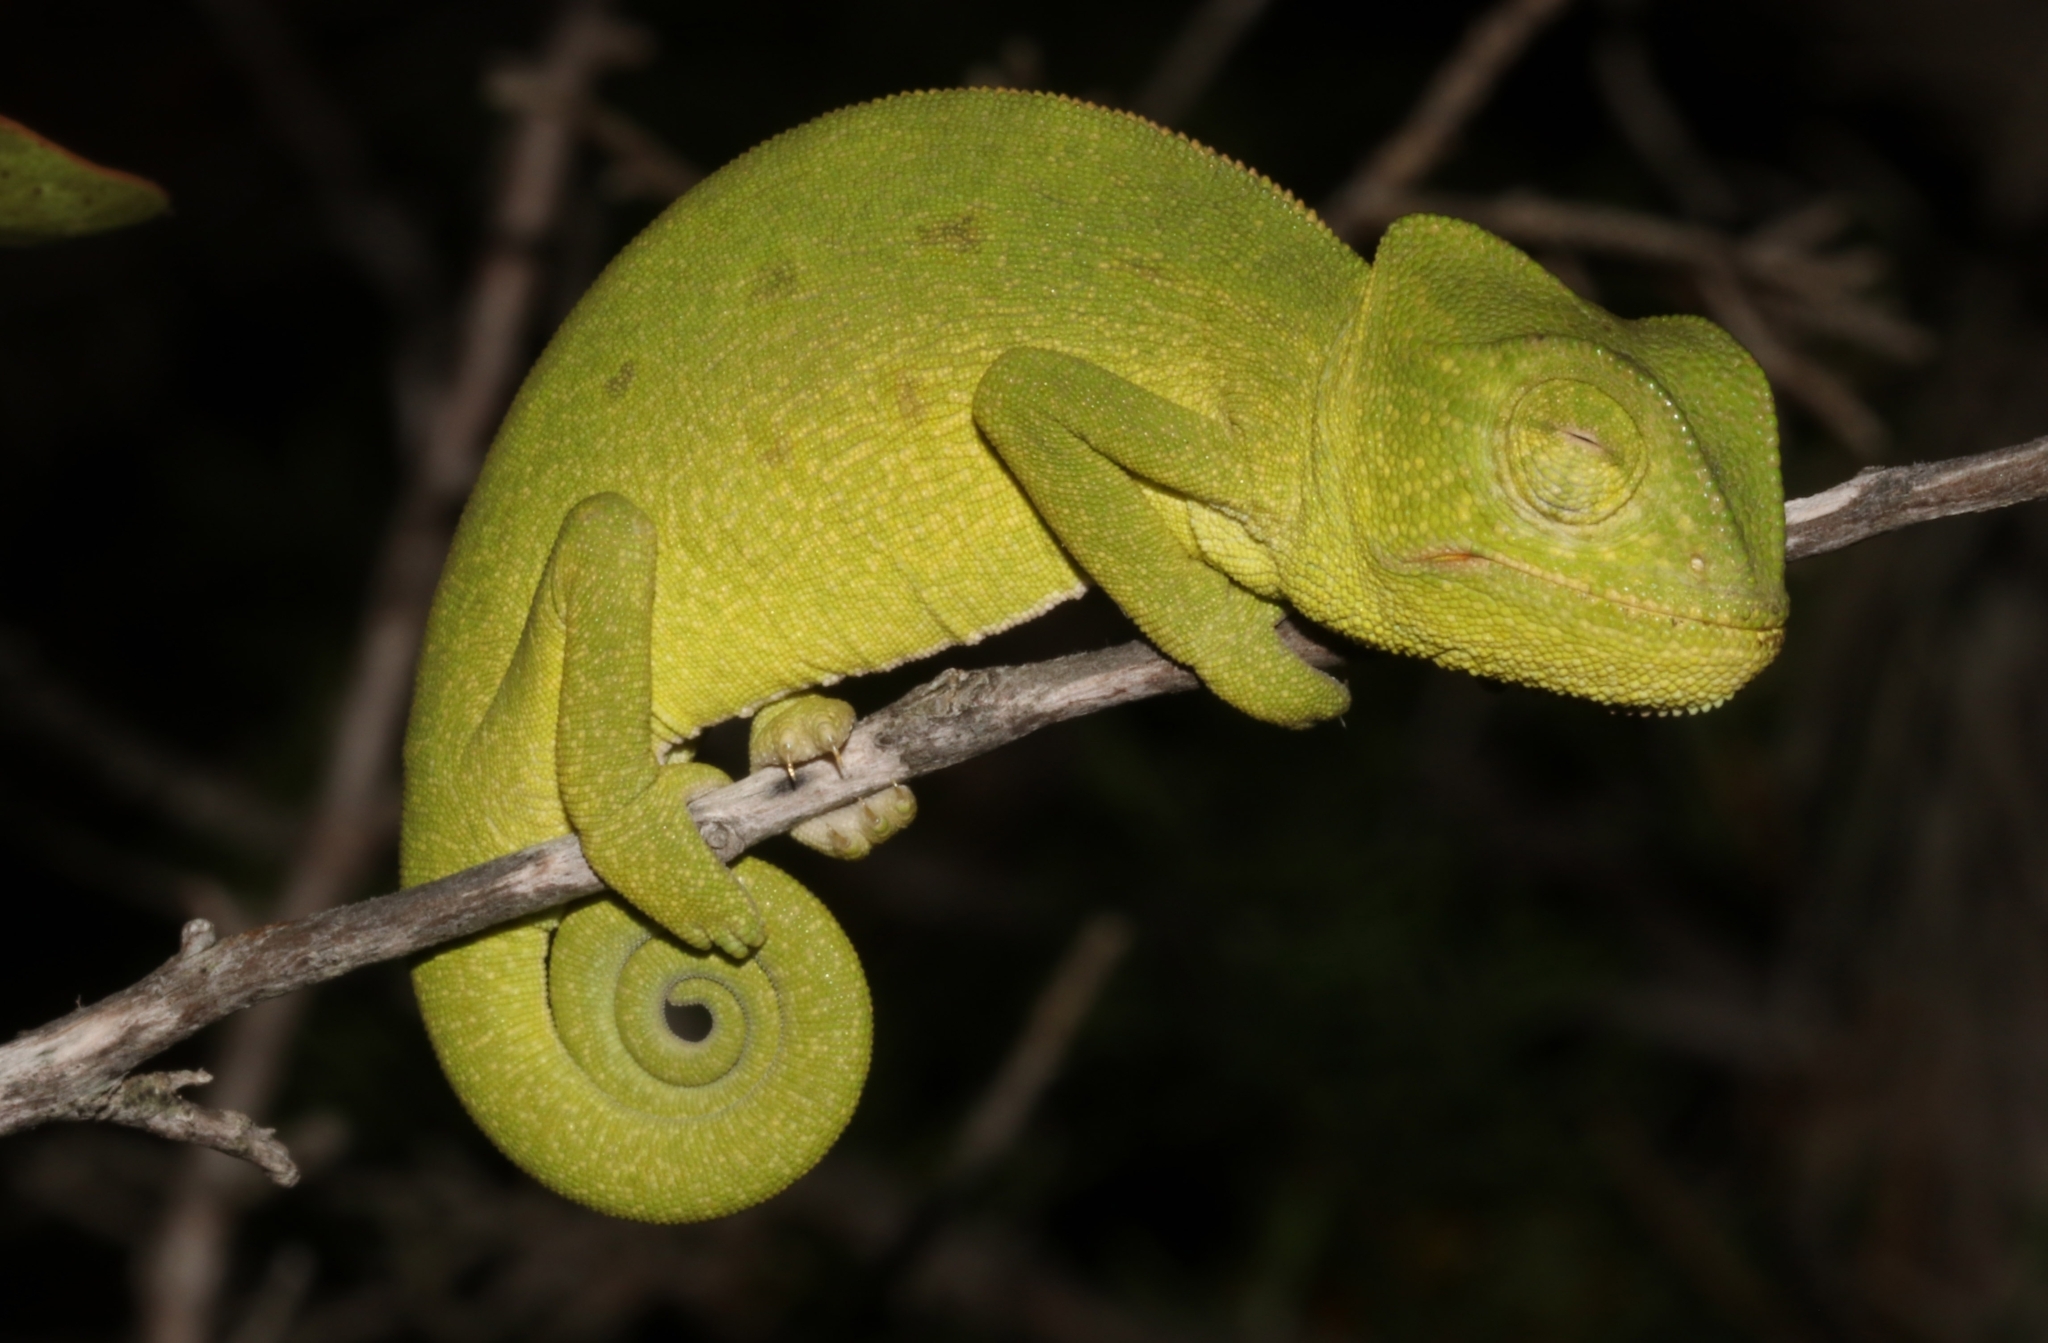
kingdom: Animalia
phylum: Chordata
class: Squamata
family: Chamaeleonidae
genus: Chamaeleo
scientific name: Chamaeleo africanus
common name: African chameleon
